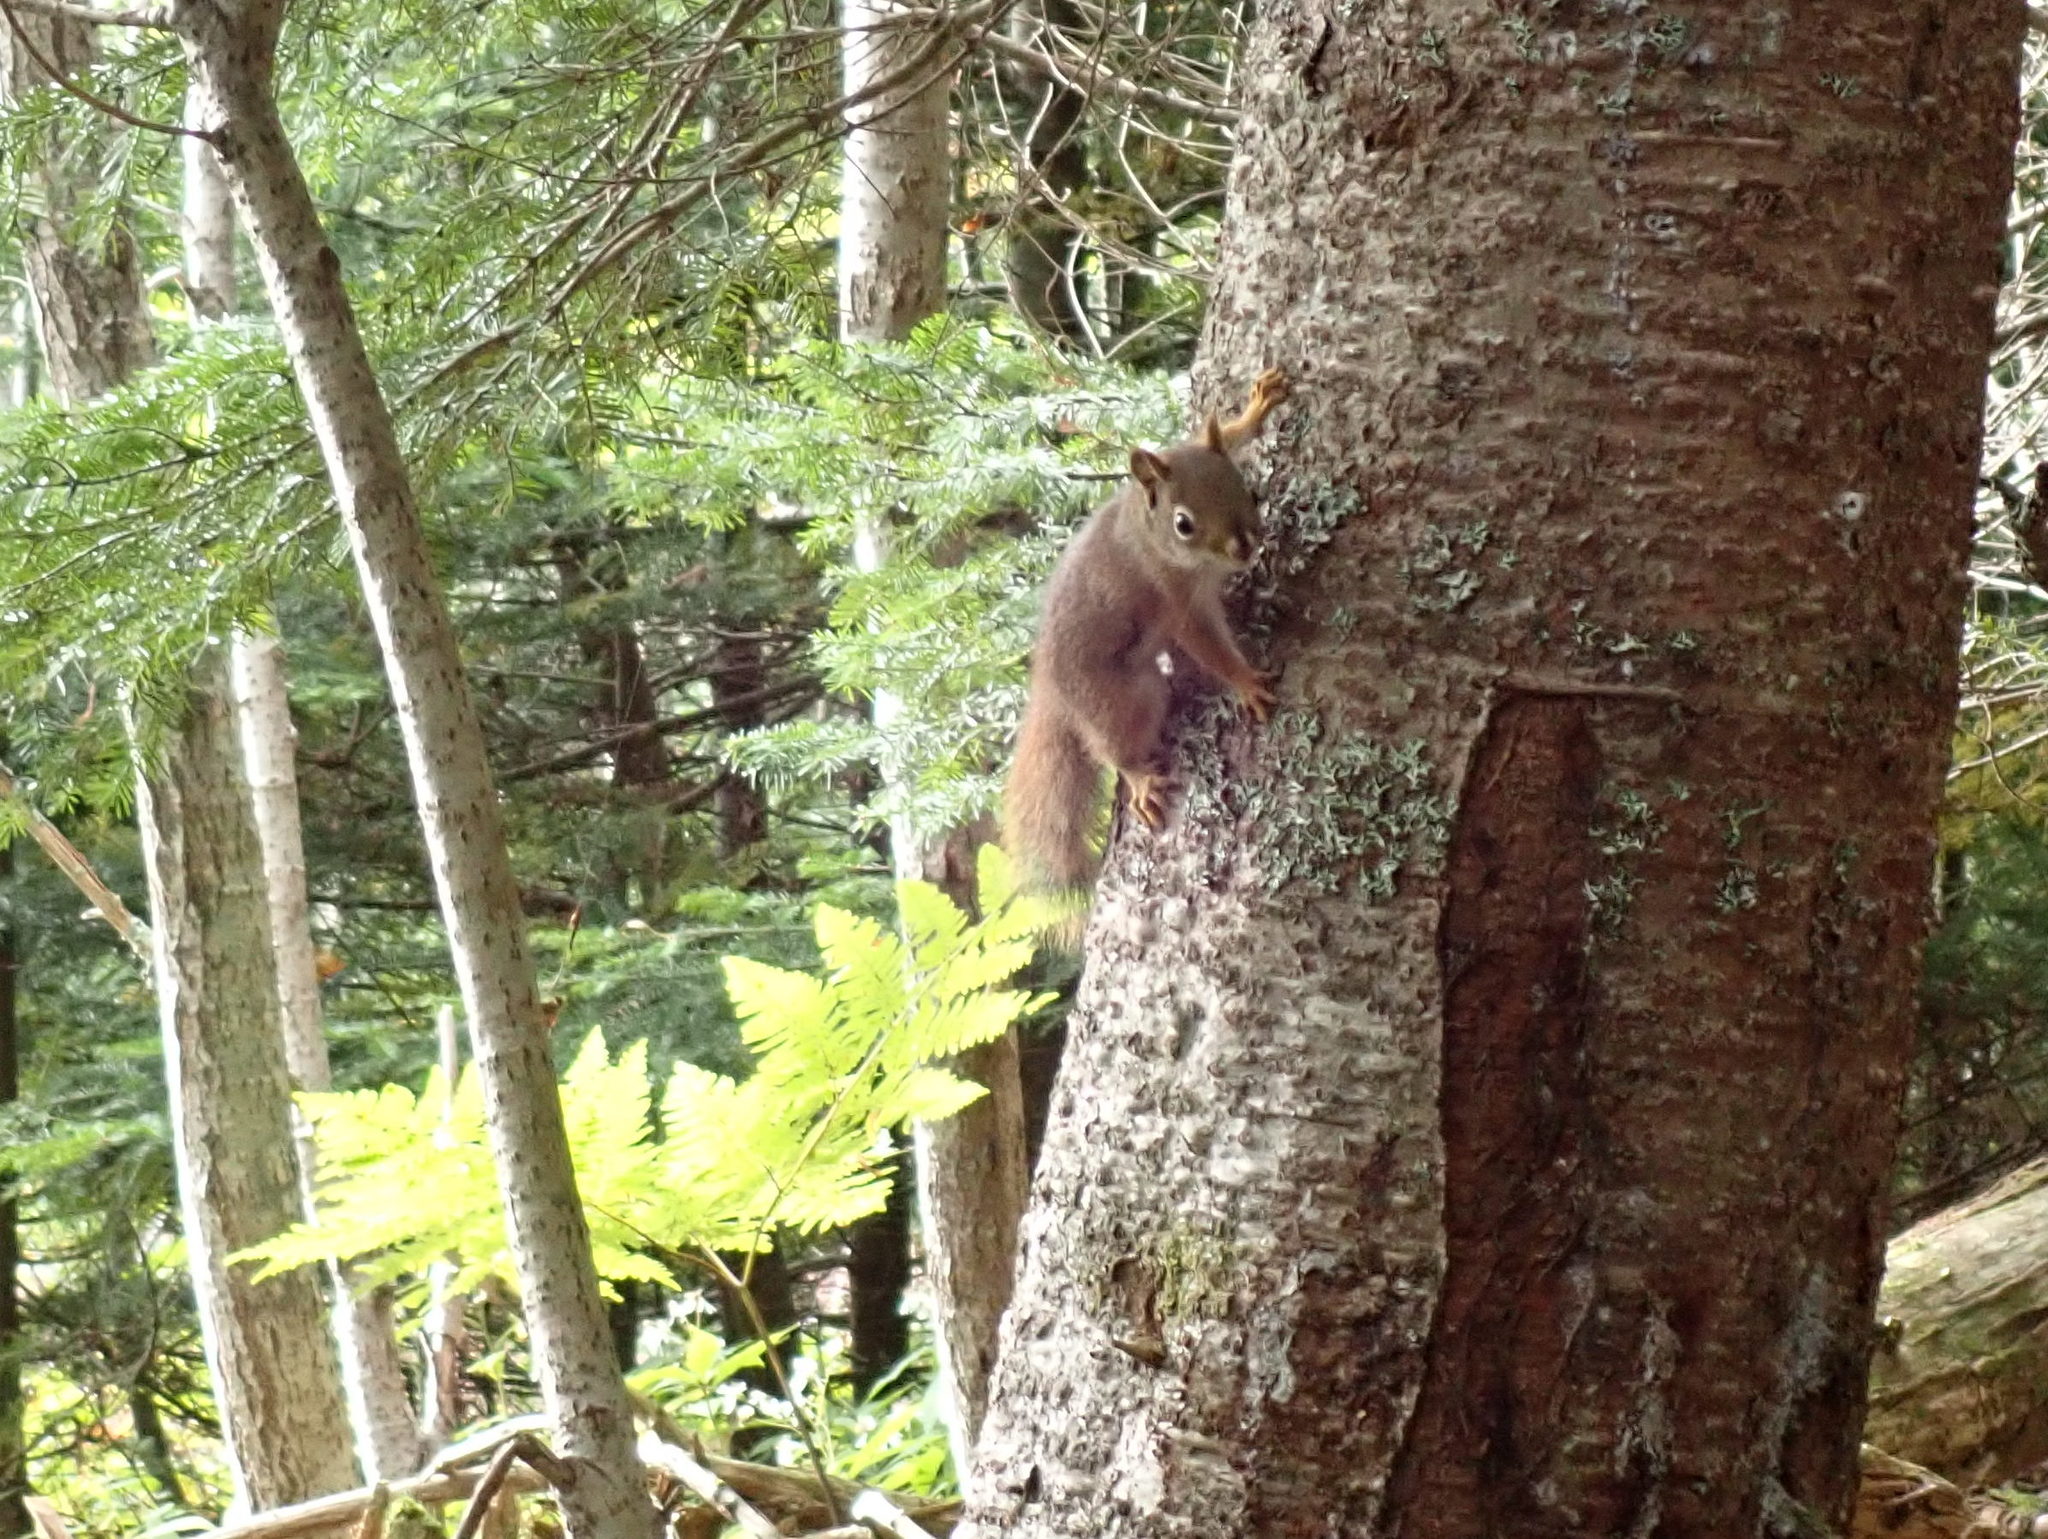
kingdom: Animalia
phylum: Chordata
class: Mammalia
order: Rodentia
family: Sciuridae
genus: Tamiasciurus
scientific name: Tamiasciurus hudsonicus
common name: Red squirrel
